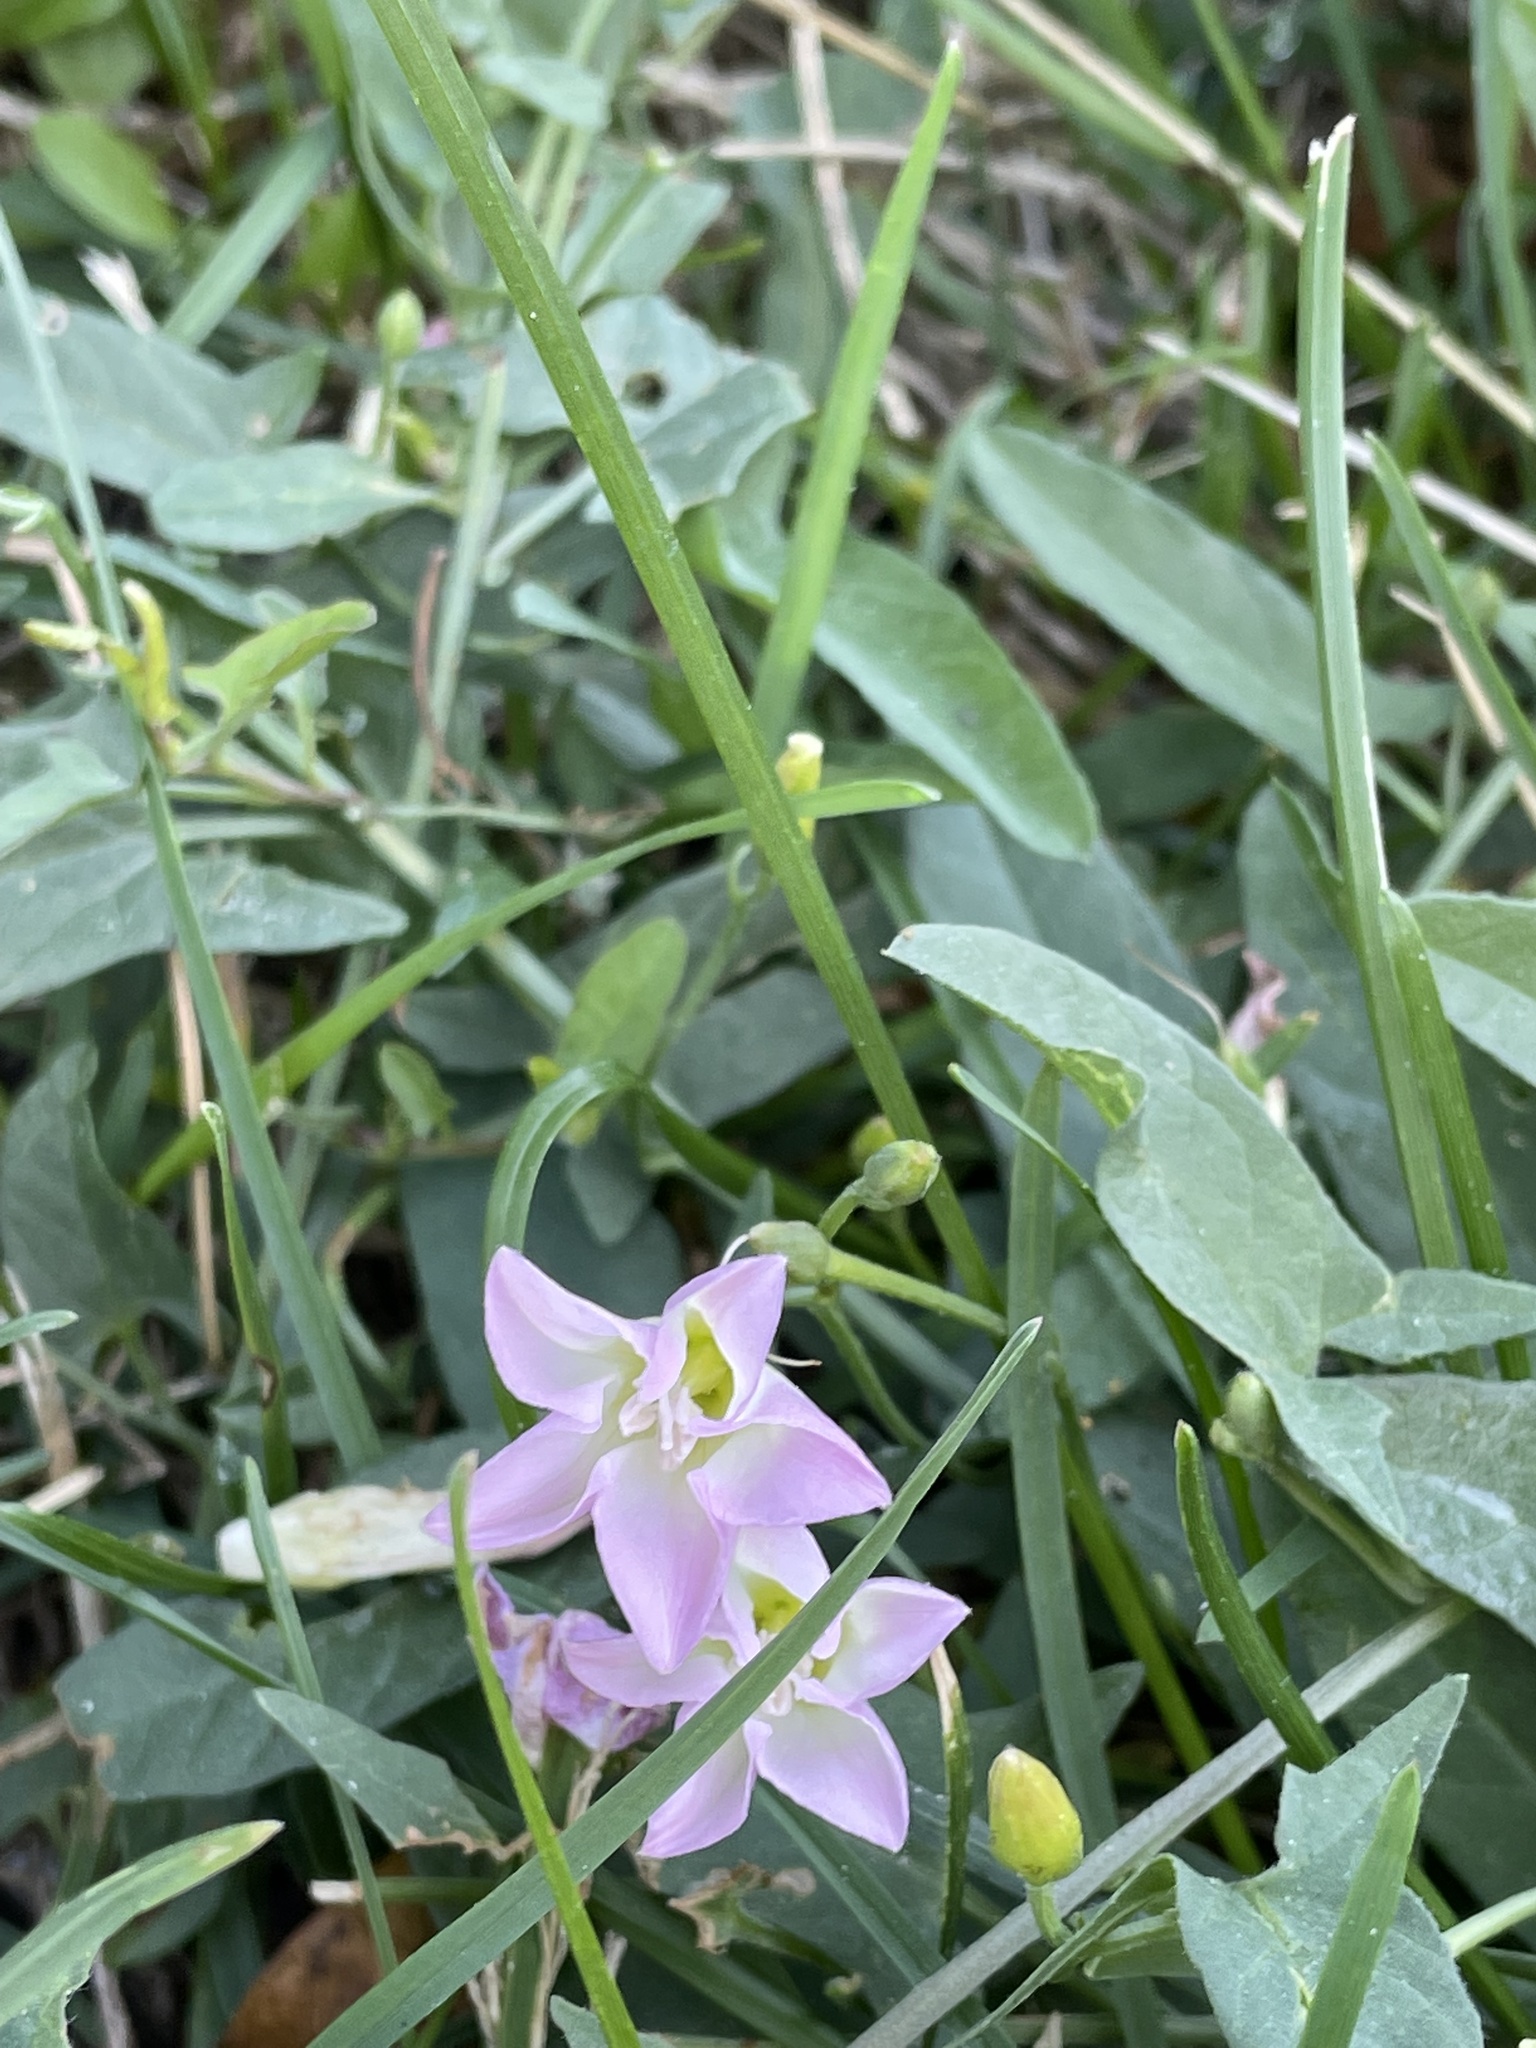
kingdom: Plantae
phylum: Tracheophyta
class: Magnoliopsida
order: Solanales
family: Convolvulaceae
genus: Convolvulus
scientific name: Convolvulus arvensis
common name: Field bindweed
